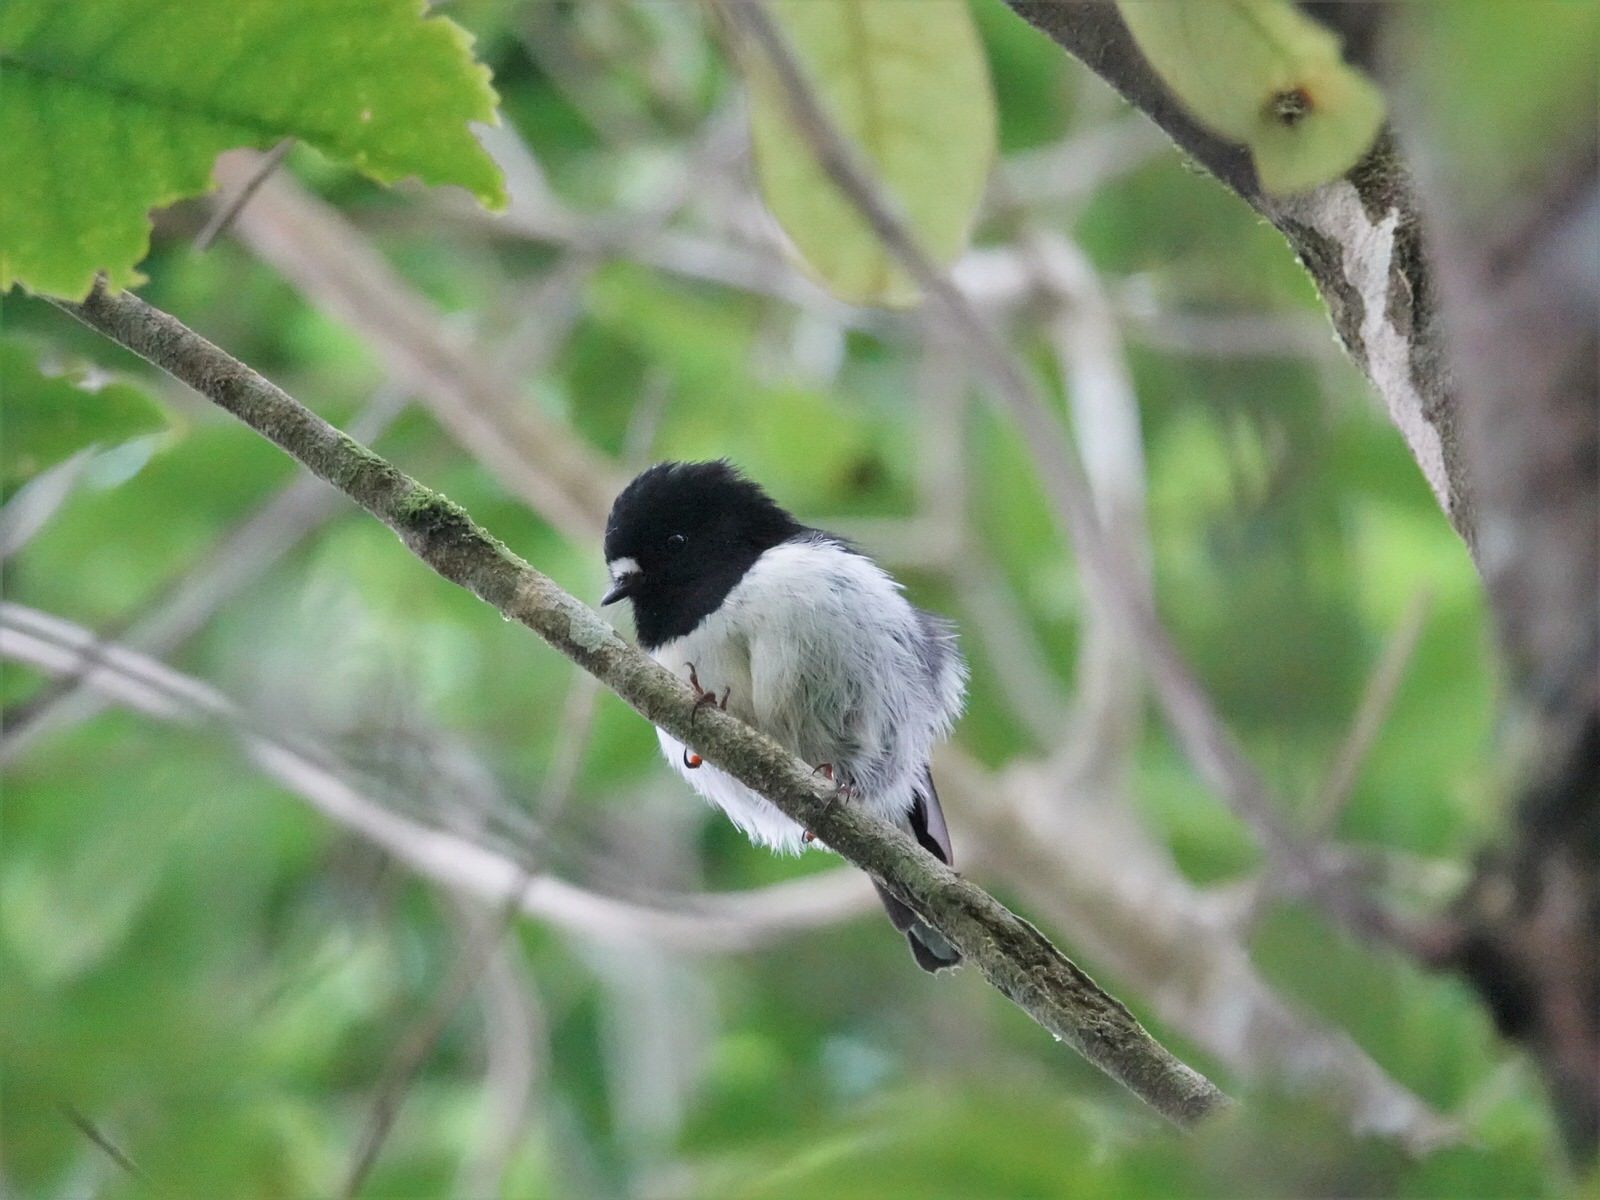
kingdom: Animalia
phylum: Chordata
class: Aves
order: Passeriformes
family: Petroicidae
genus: Petroica
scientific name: Petroica macrocephala
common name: Tomtit
